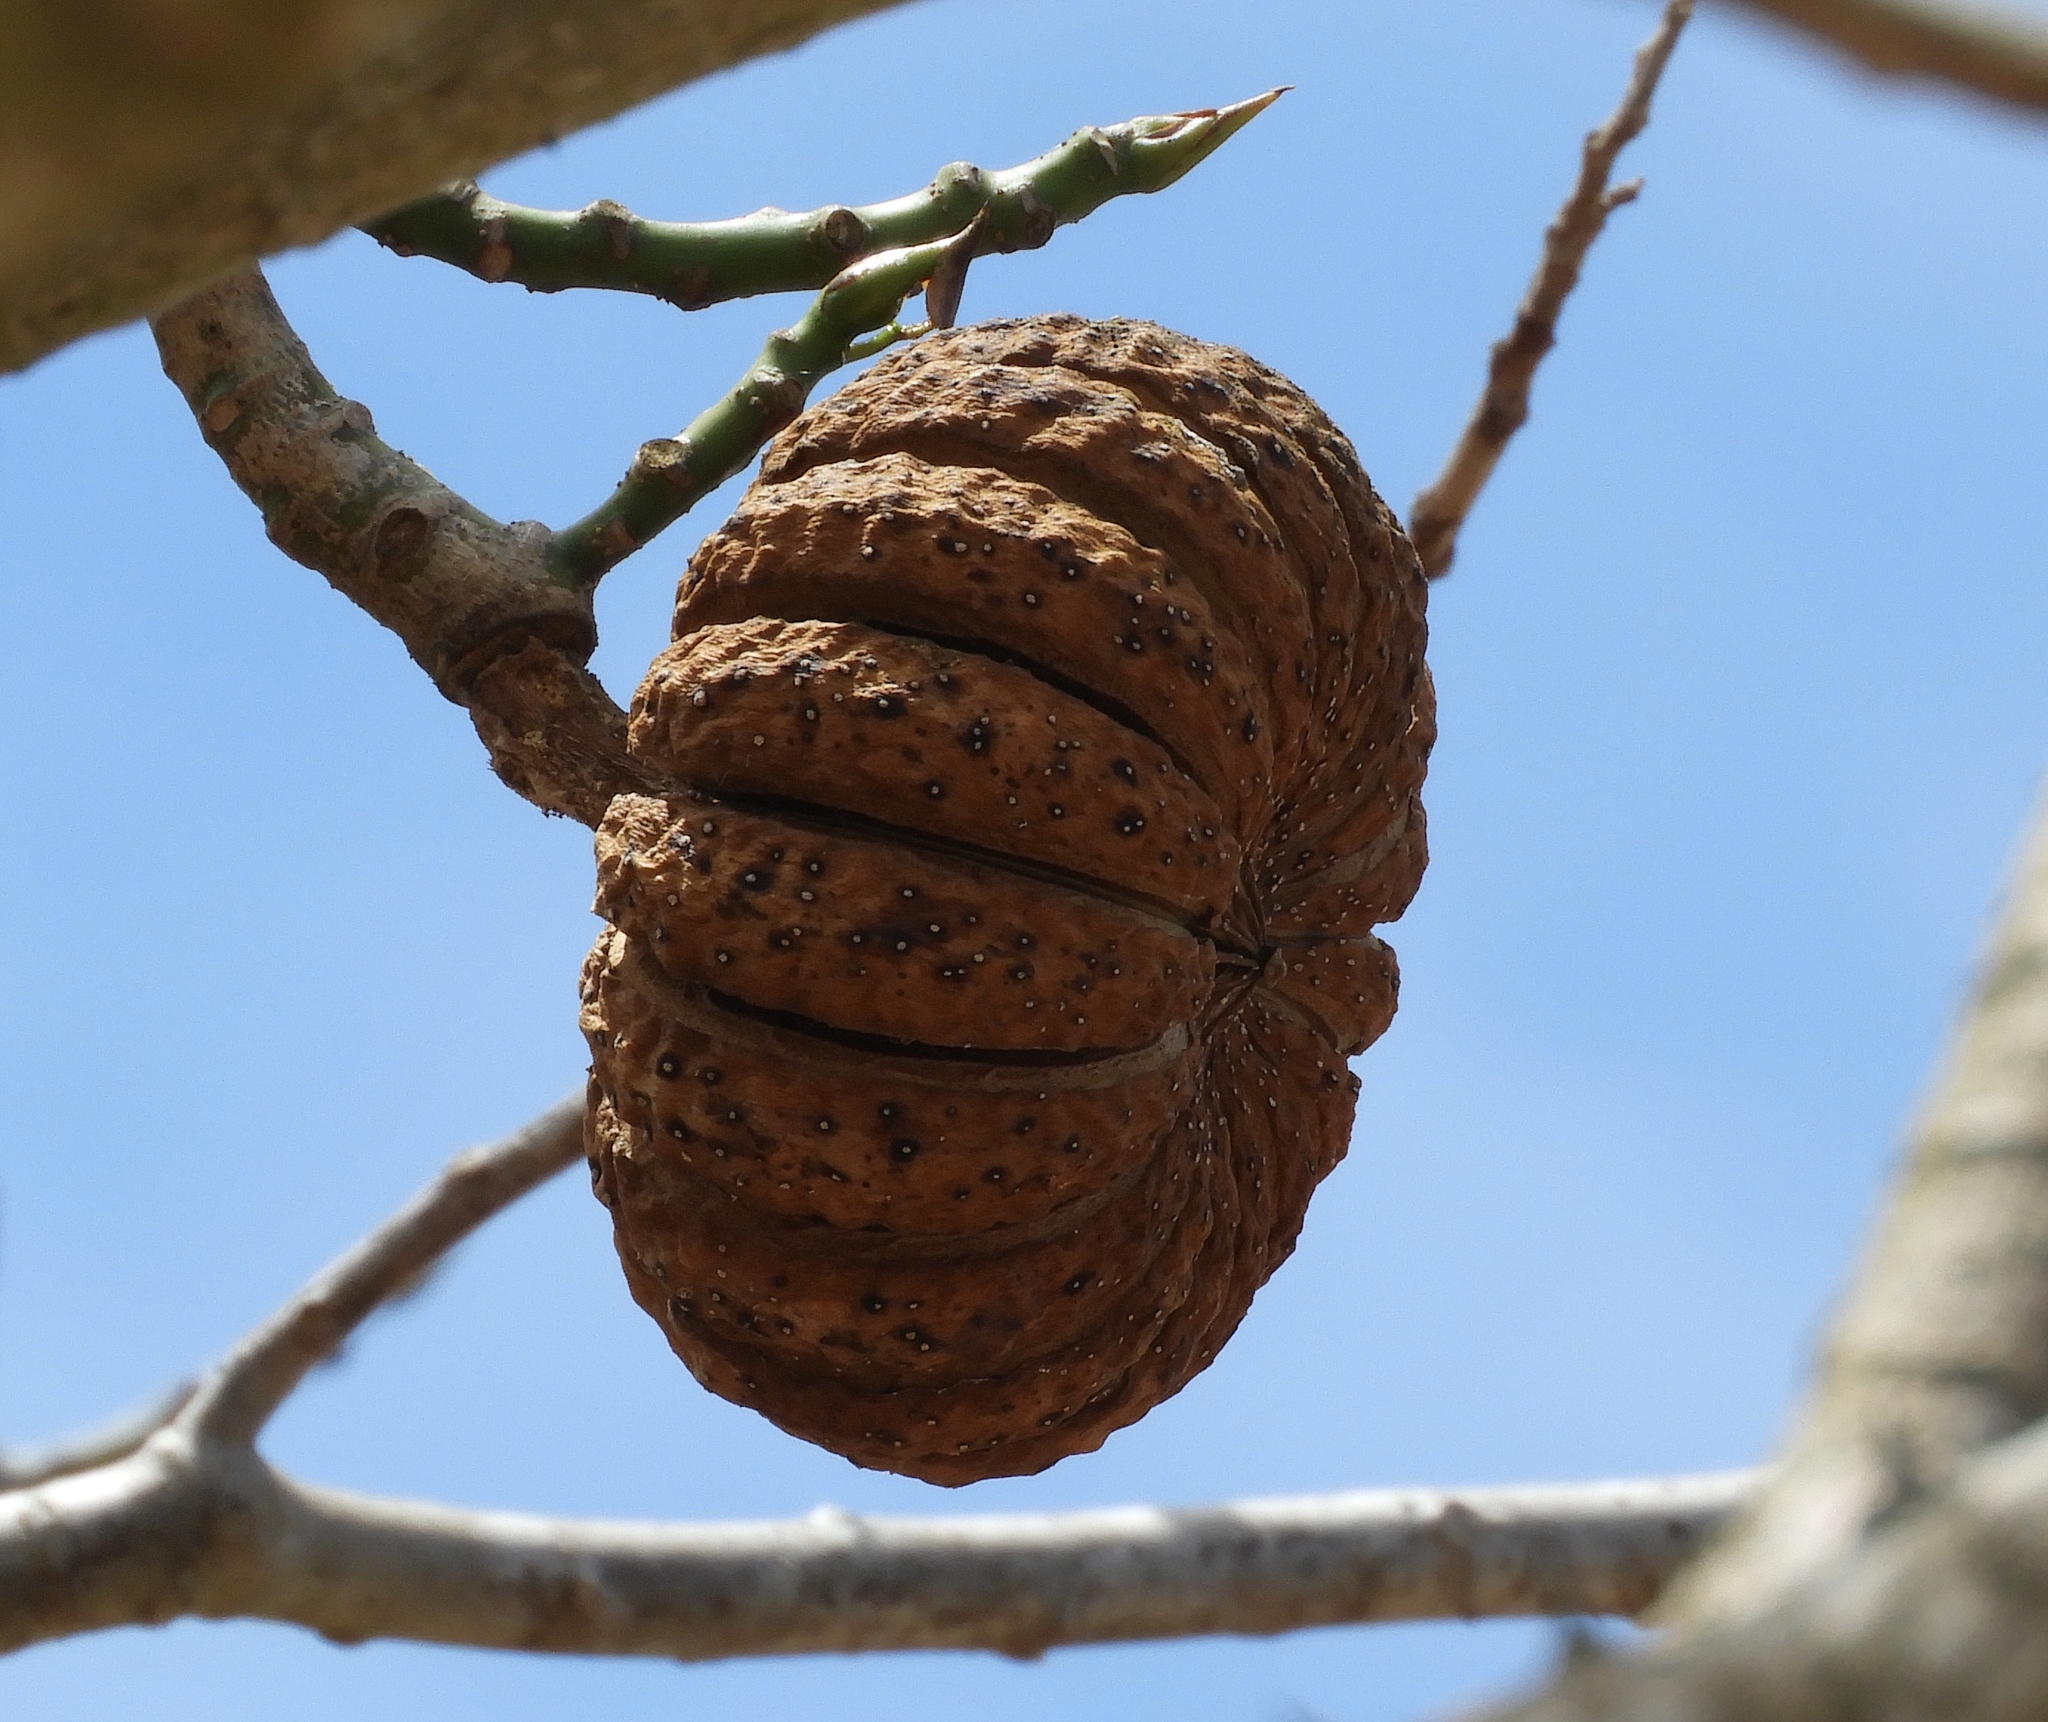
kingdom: Plantae
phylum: Tracheophyta
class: Magnoliopsida
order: Malpighiales
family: Euphorbiaceae
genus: Hura
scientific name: Hura polyandra
